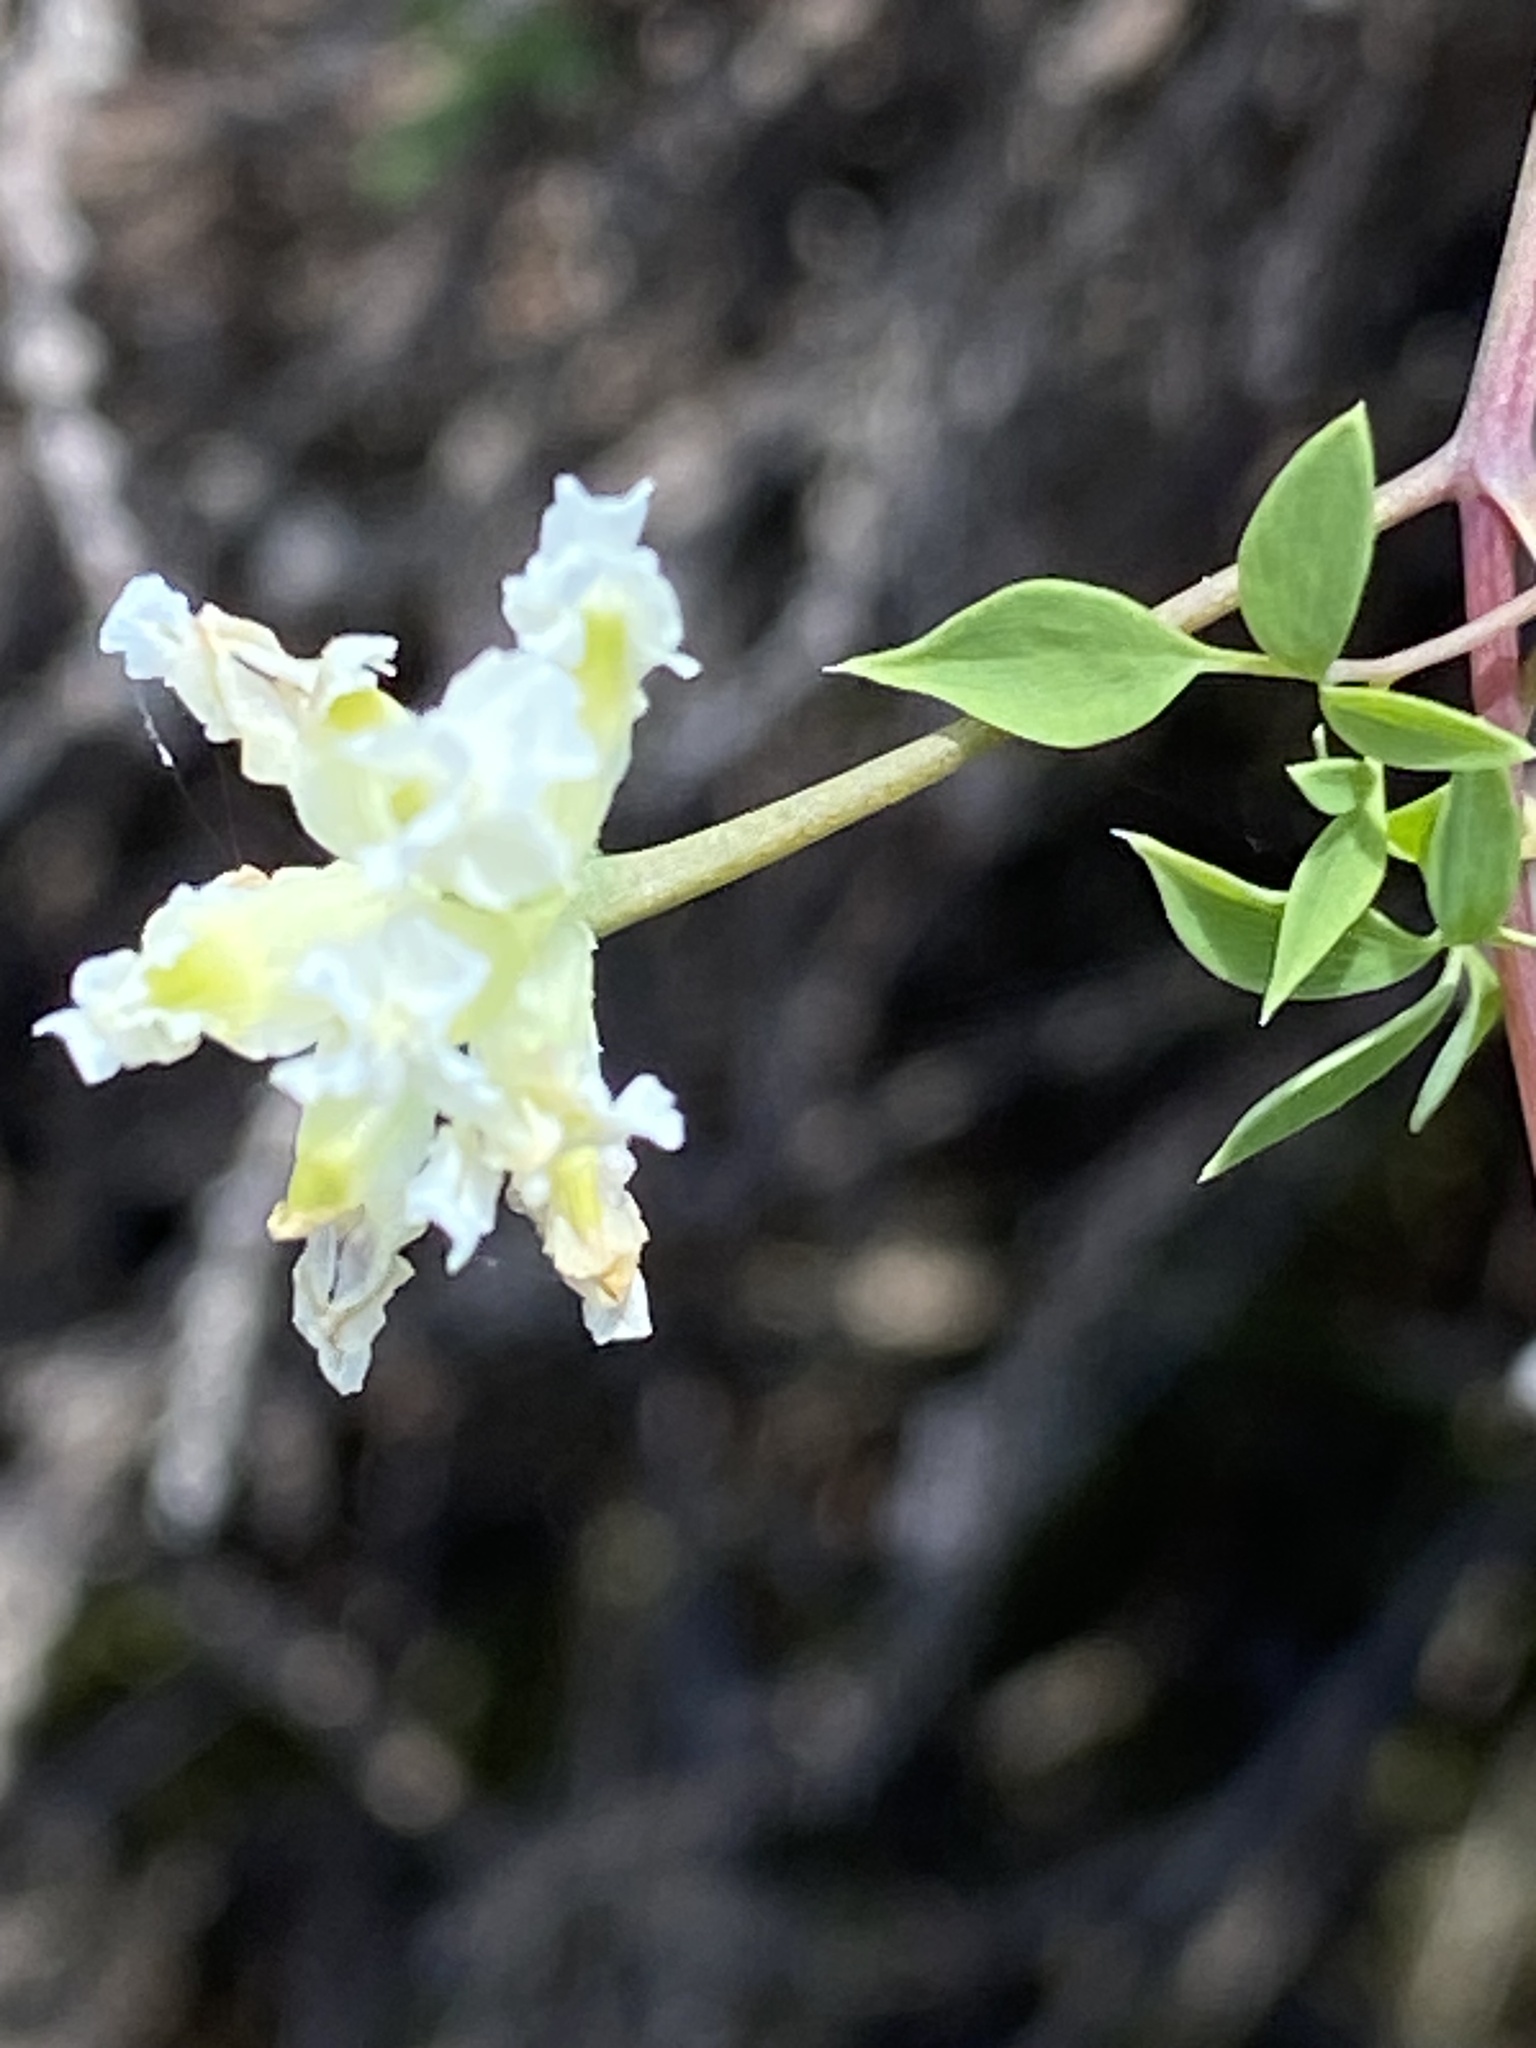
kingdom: Plantae
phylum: Tracheophyta
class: Magnoliopsida
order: Ranunculales
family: Papaveraceae
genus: Ceratocapnos
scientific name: Ceratocapnos claviculata
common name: Climbing corydalis
